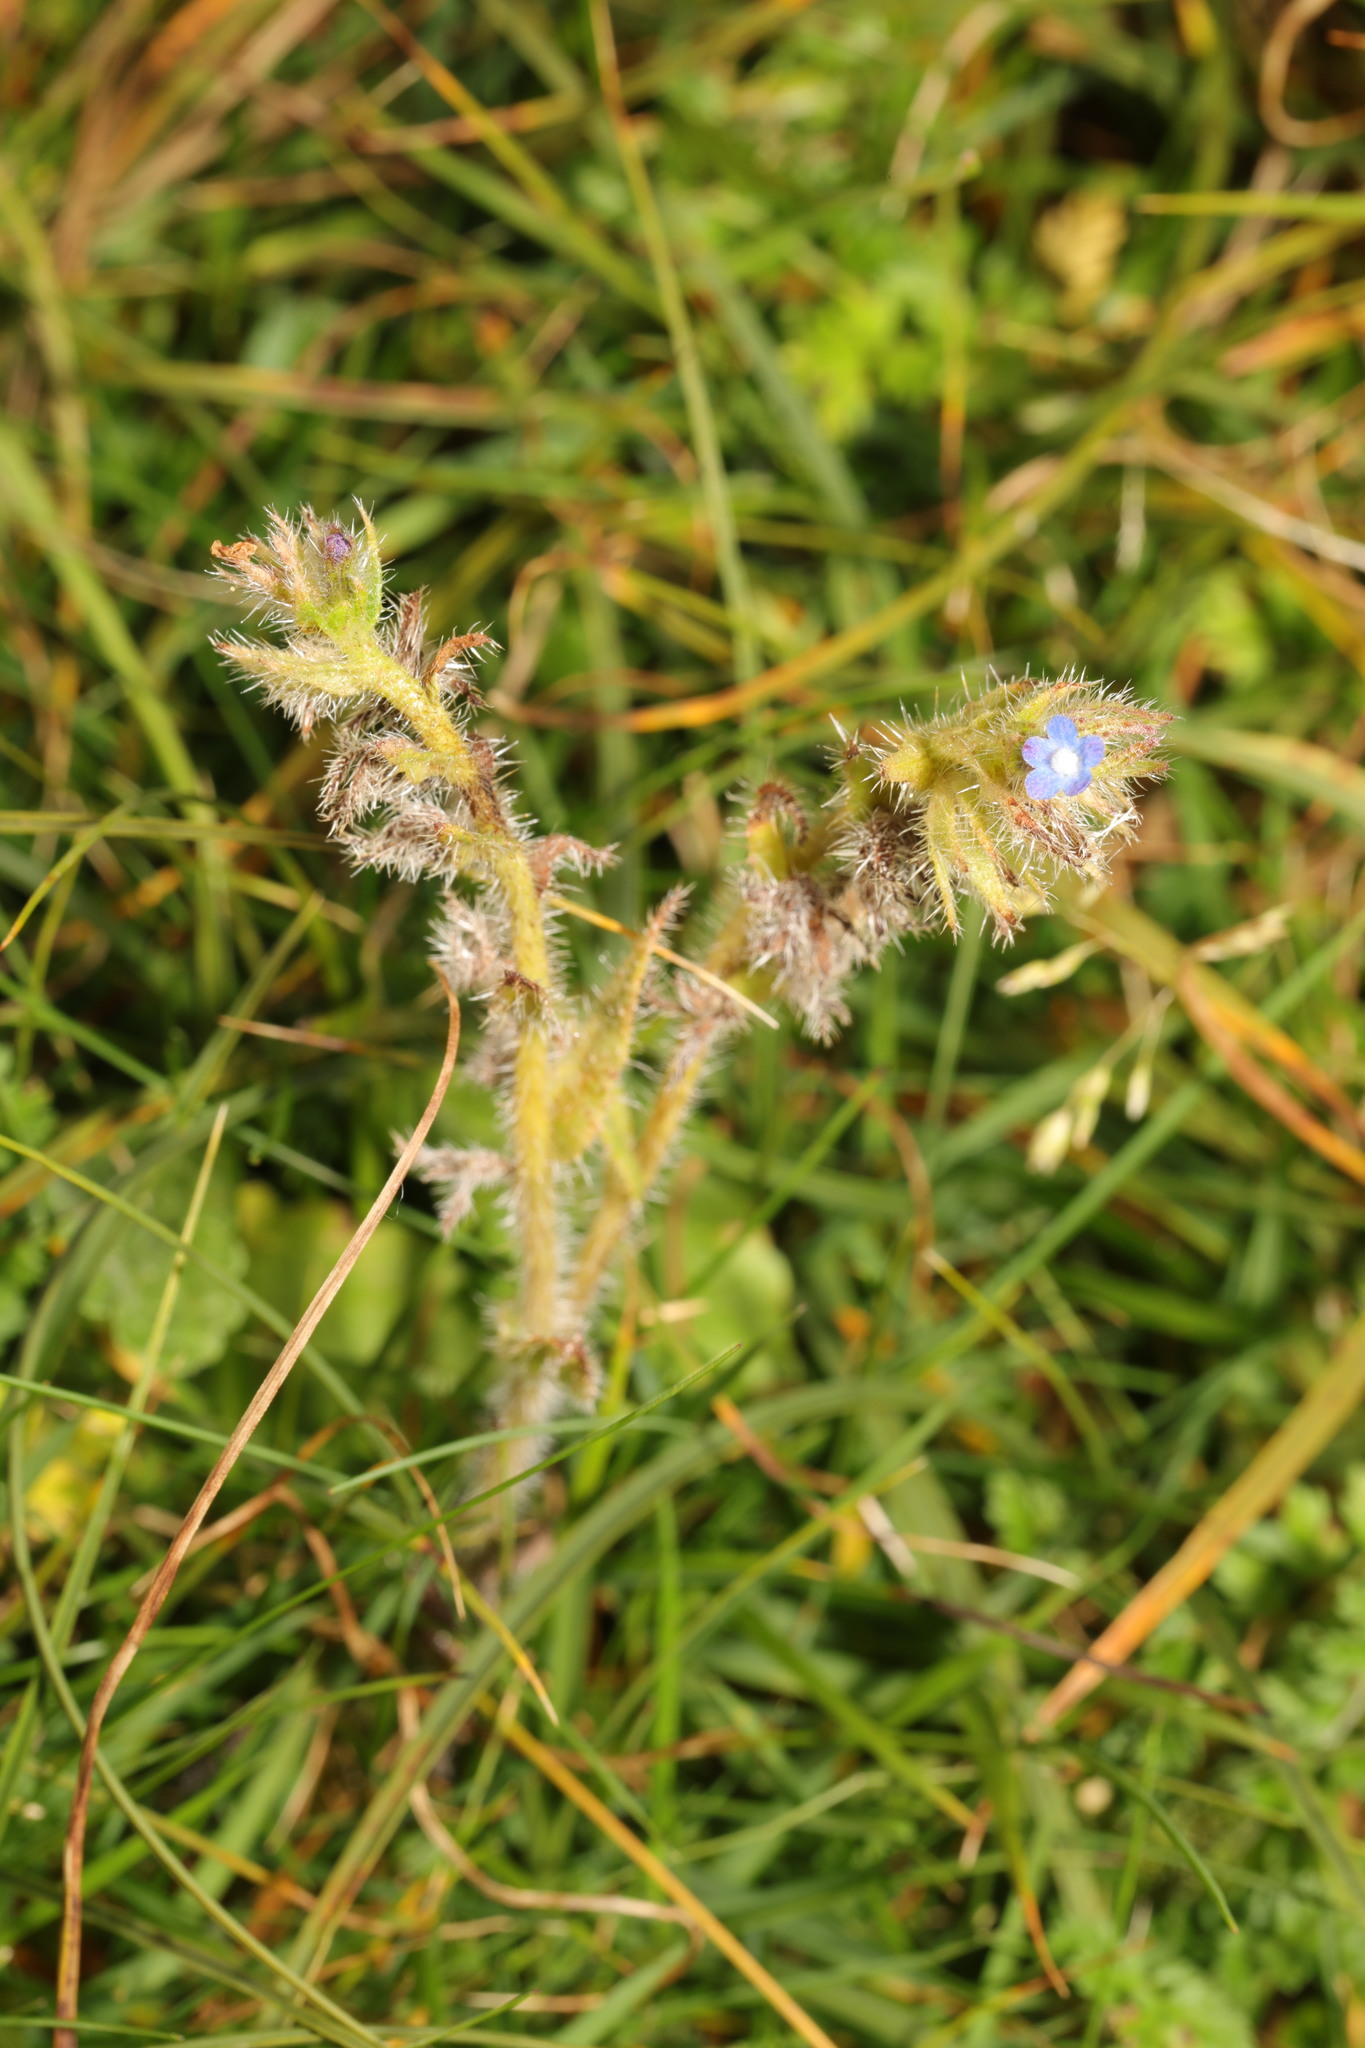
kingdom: Plantae
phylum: Tracheophyta
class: Magnoliopsida
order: Boraginales
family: Boraginaceae
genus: Lycopsis
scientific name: Lycopsis arvensis
